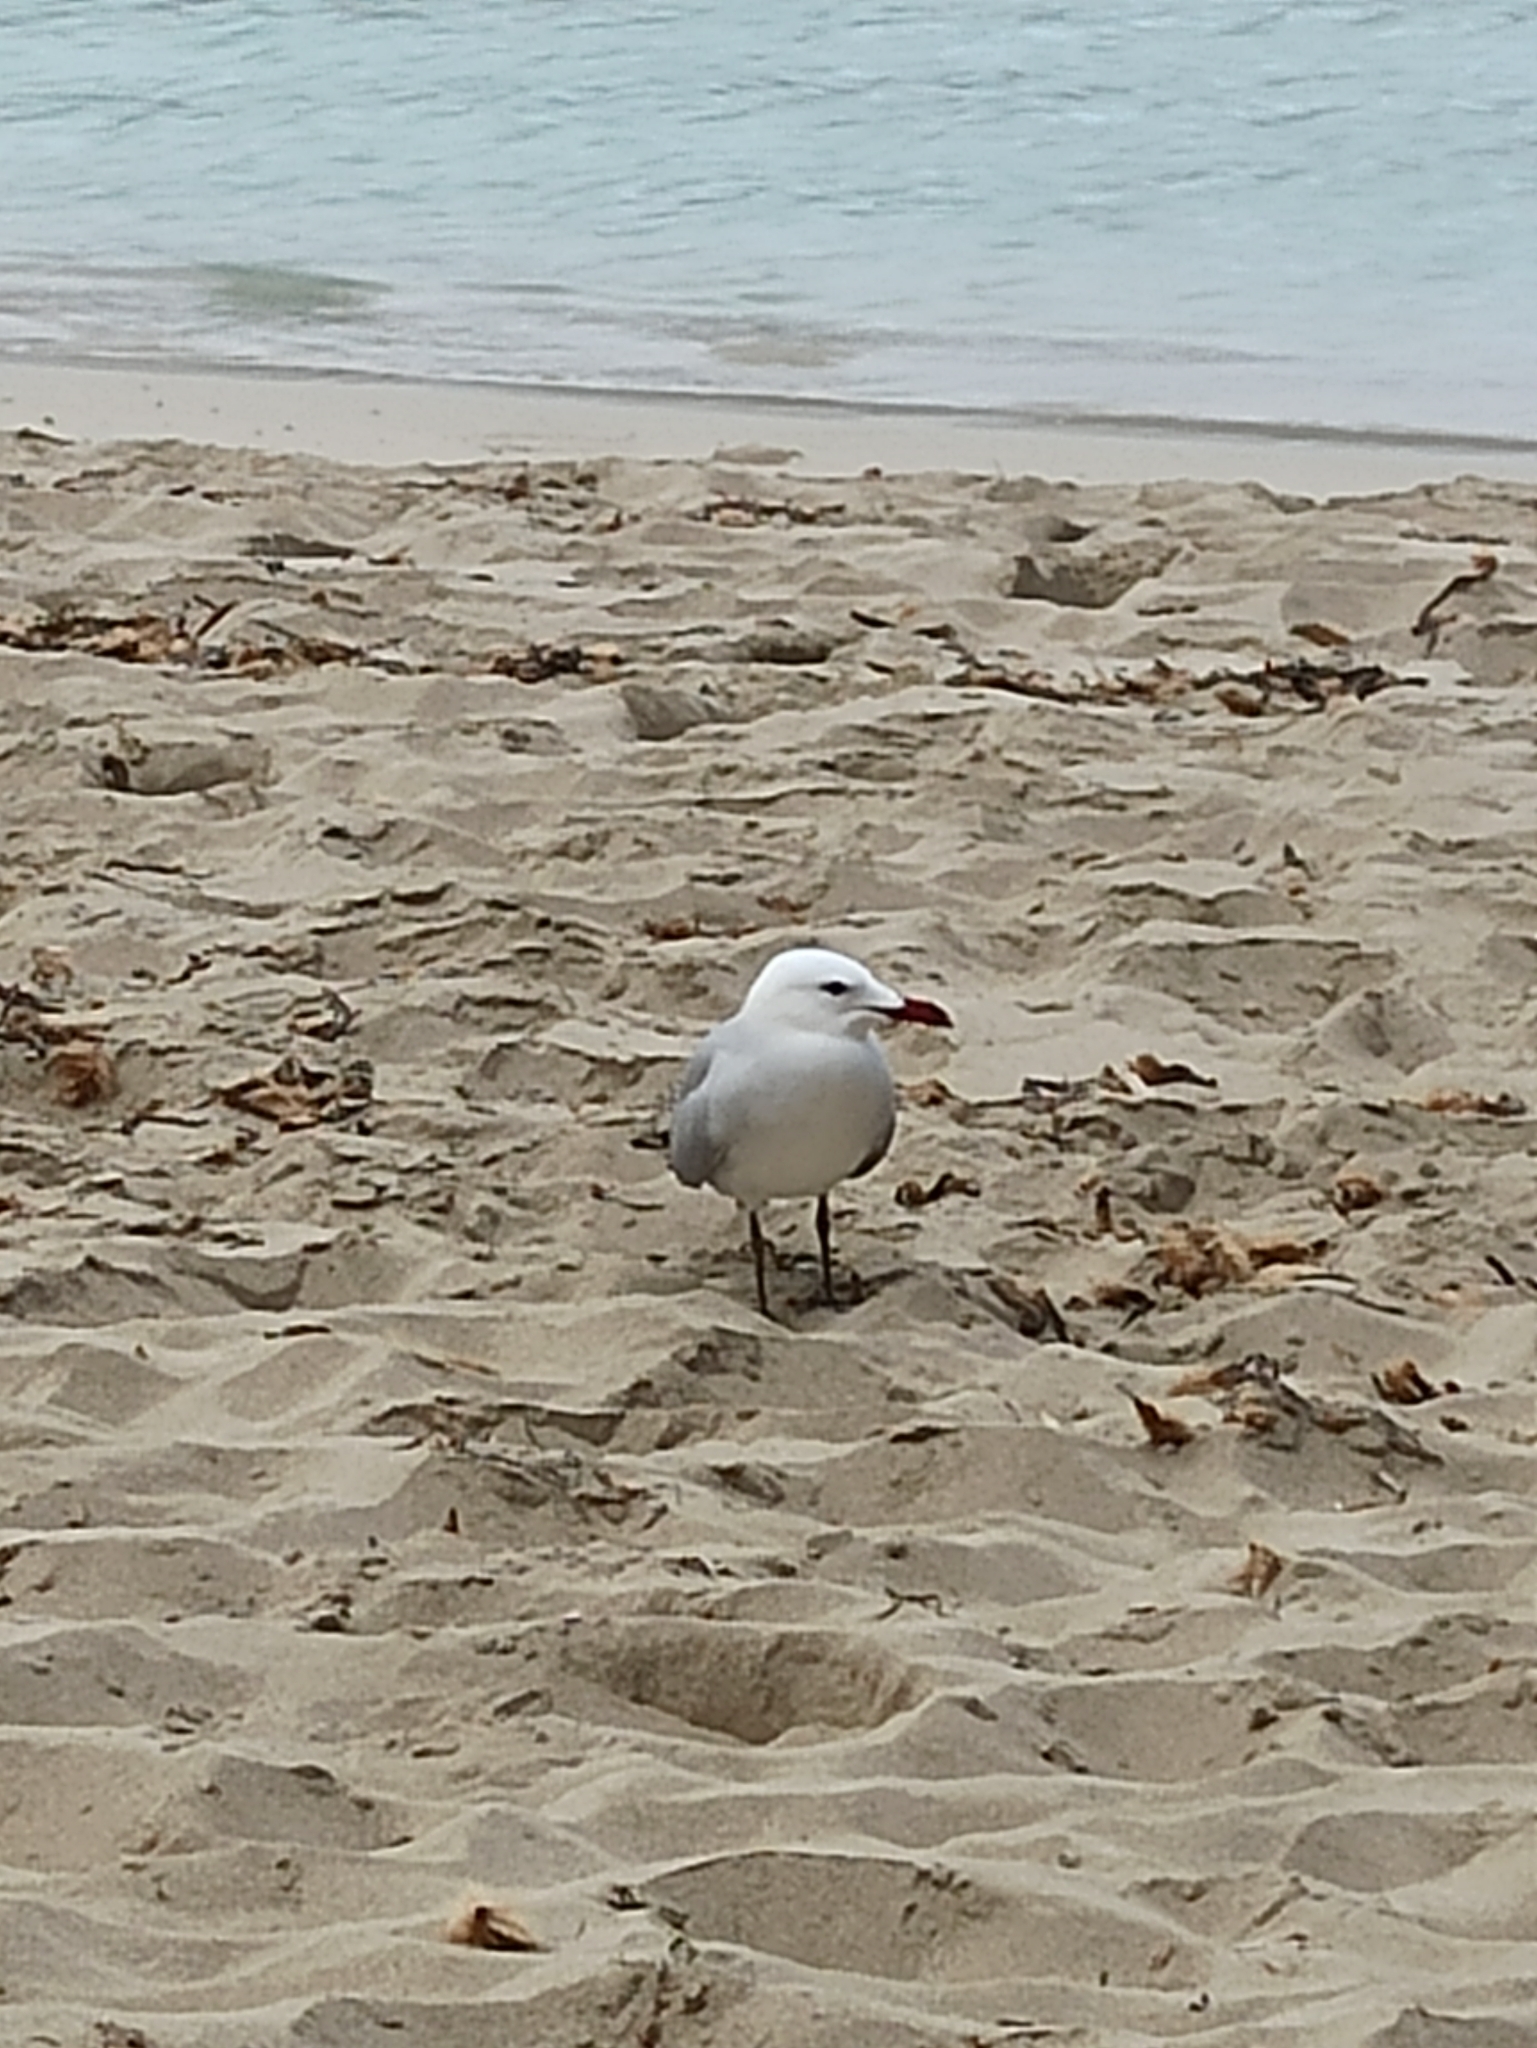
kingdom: Animalia
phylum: Chordata
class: Aves
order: Charadriiformes
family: Laridae
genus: Ichthyaetus
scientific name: Ichthyaetus audouinii
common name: Audouin's gull
